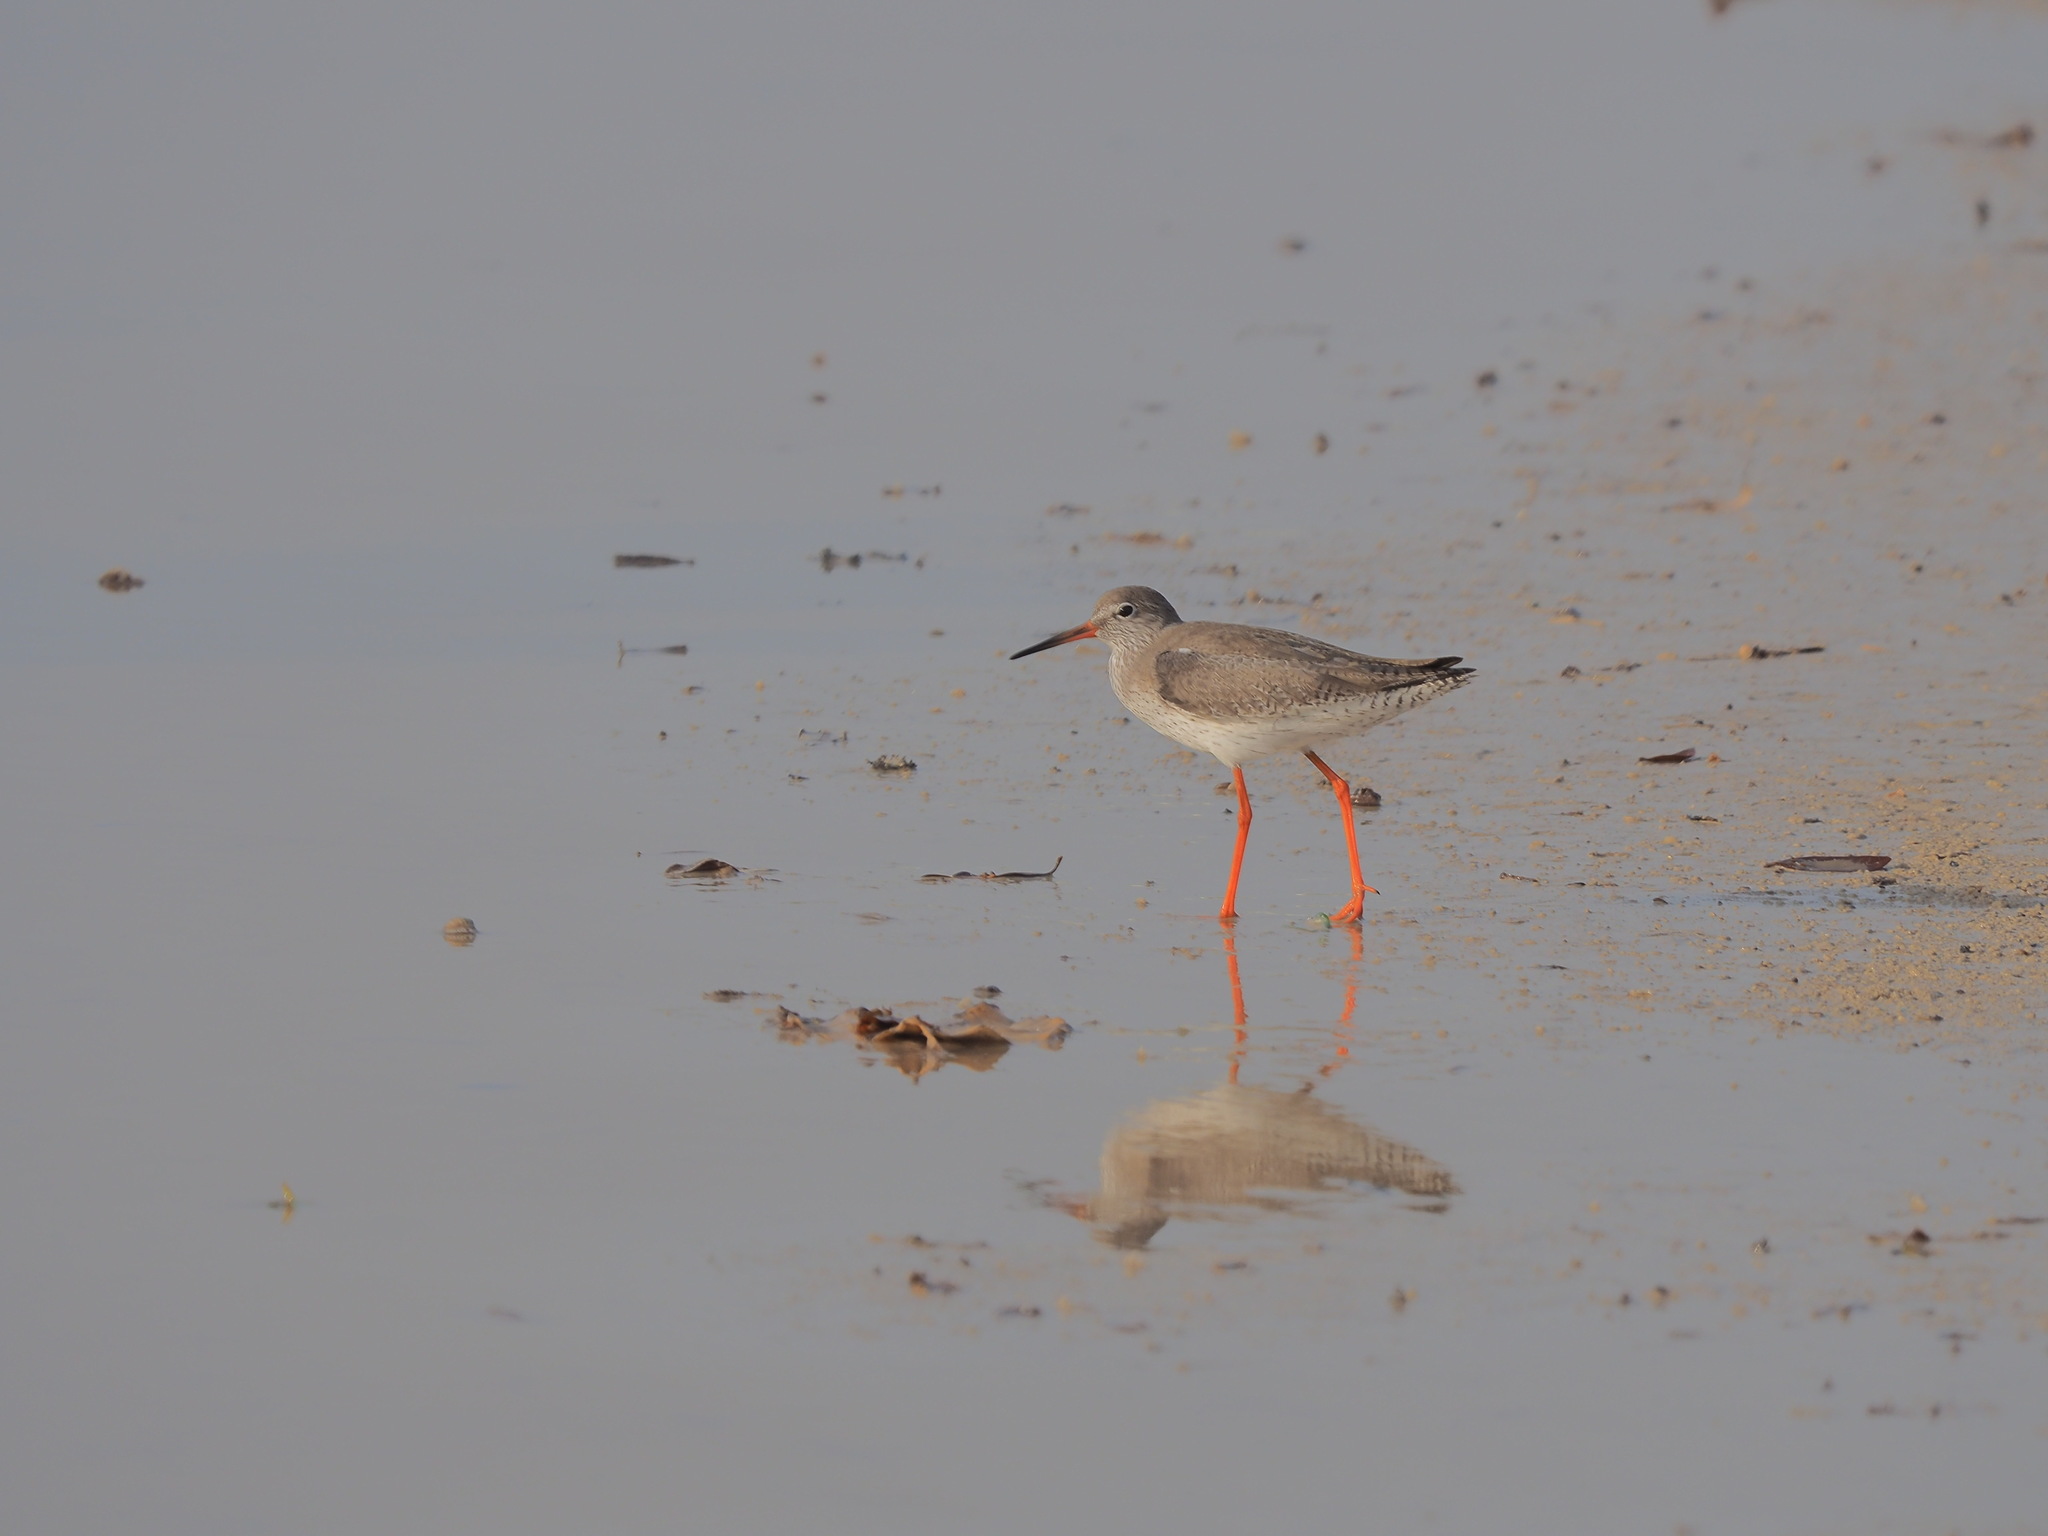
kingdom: Animalia
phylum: Chordata
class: Aves
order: Charadriiformes
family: Scolopacidae
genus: Tringa
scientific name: Tringa totanus
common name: Common redshank
